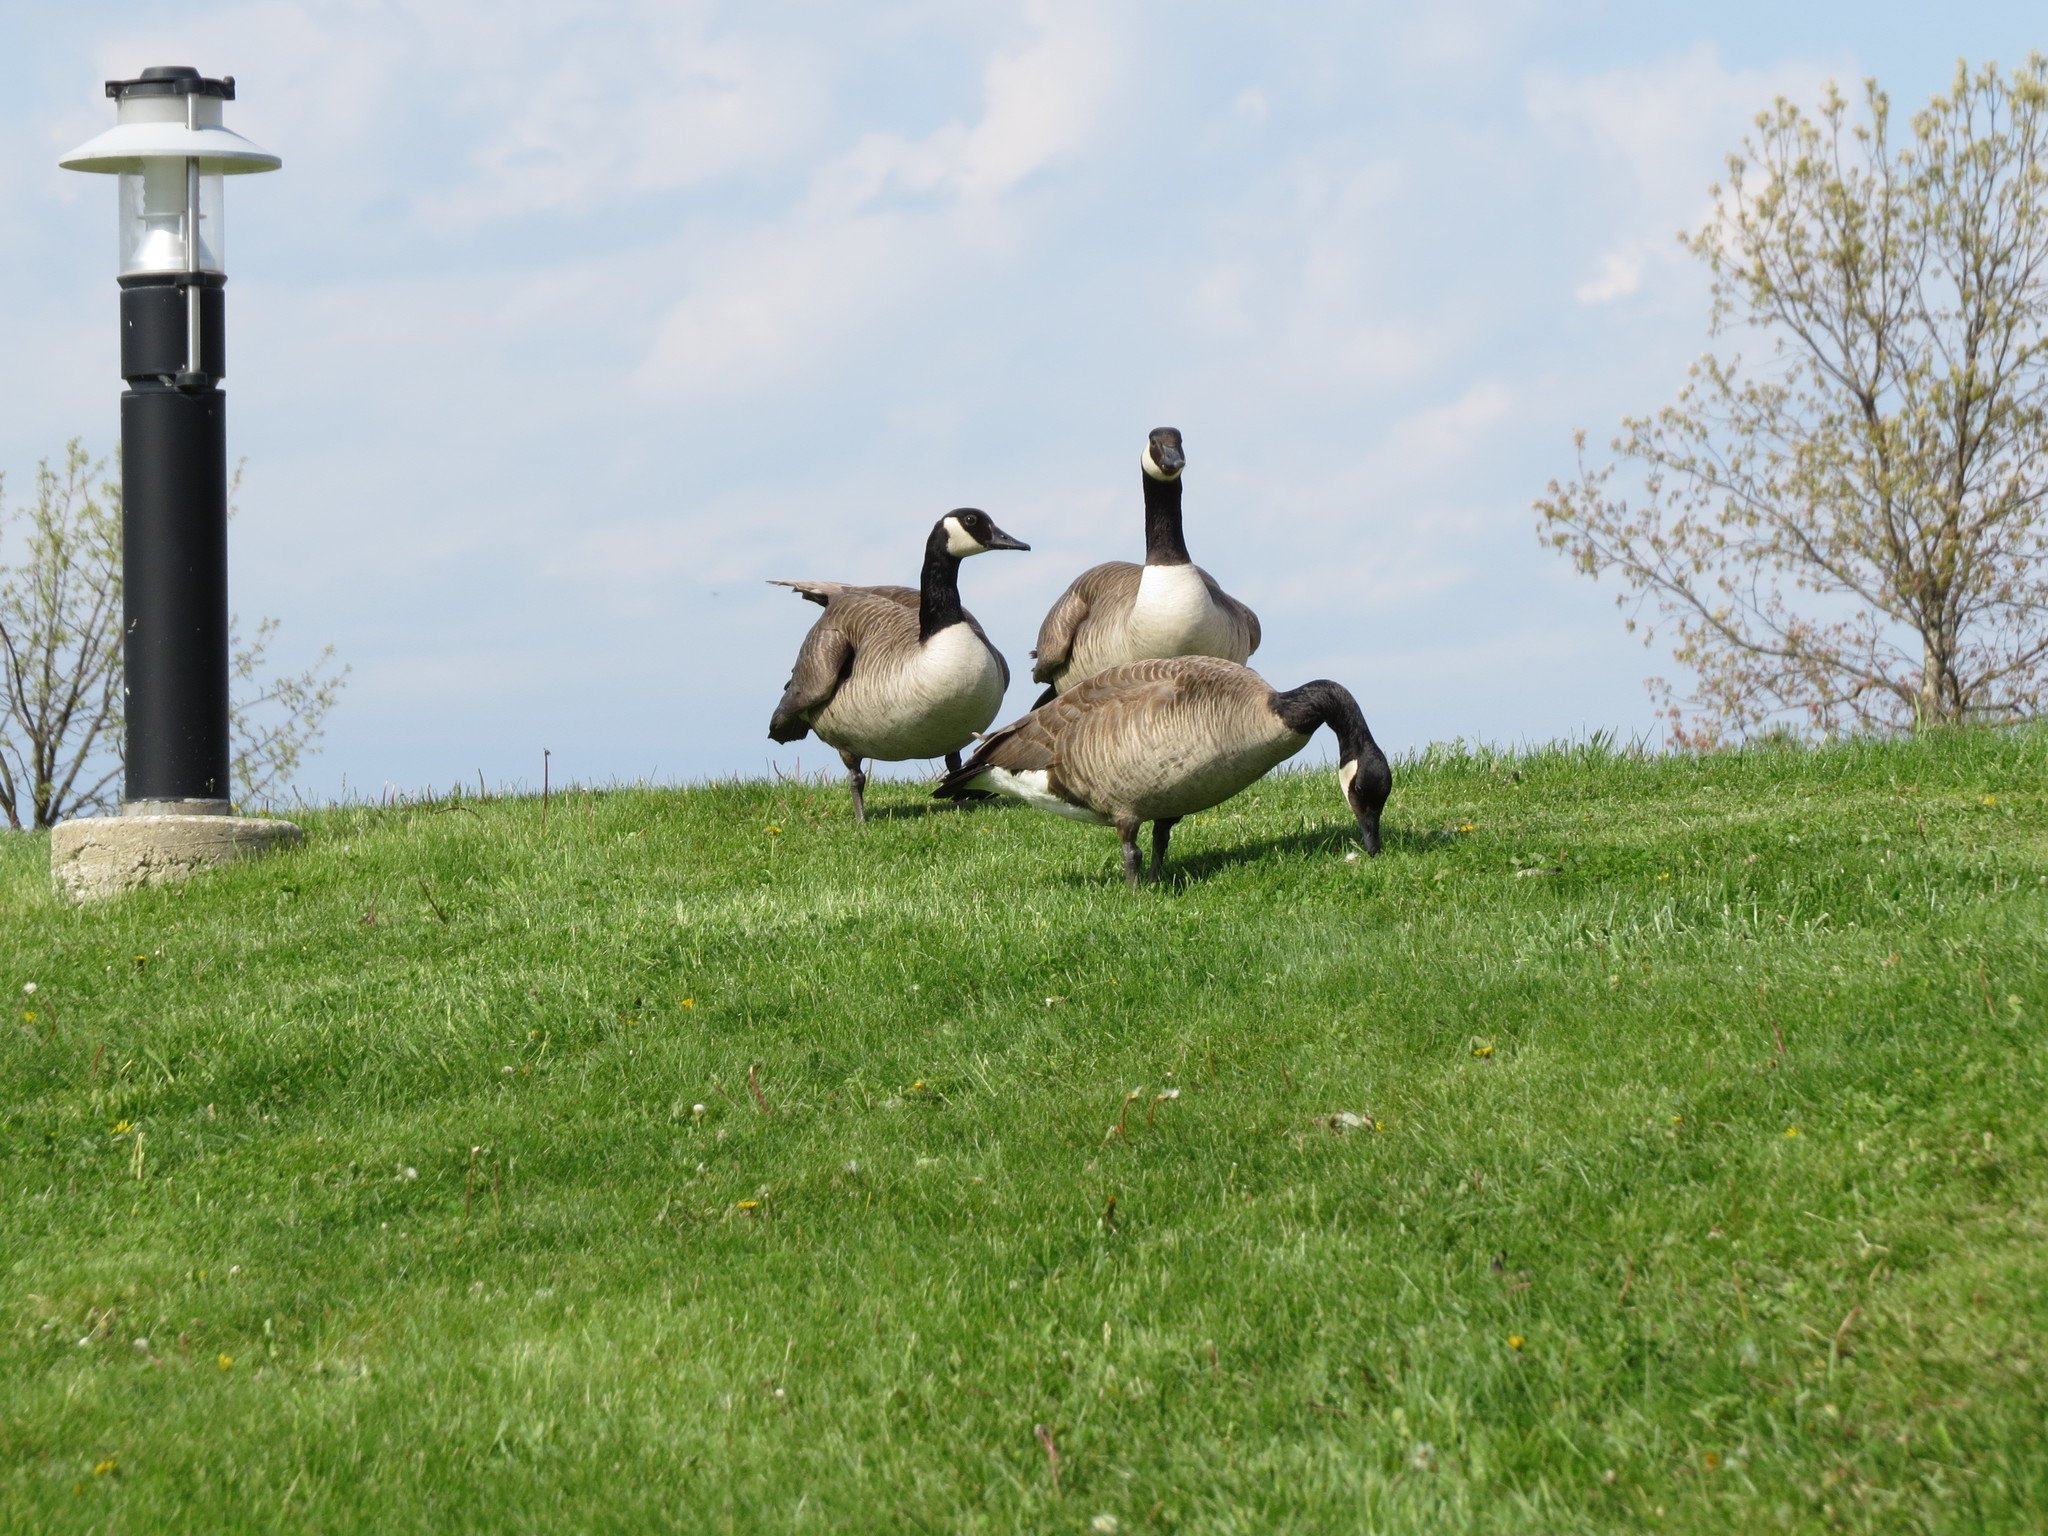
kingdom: Animalia
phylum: Chordata
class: Aves
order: Anseriformes
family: Anatidae
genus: Branta
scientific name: Branta canadensis
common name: Canada goose
